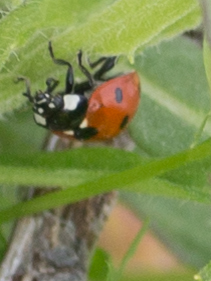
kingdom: Animalia
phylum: Arthropoda
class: Insecta
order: Coleoptera
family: Coccinellidae
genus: Coccinella
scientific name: Coccinella septempunctata
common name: Sevenspotted lady beetle
